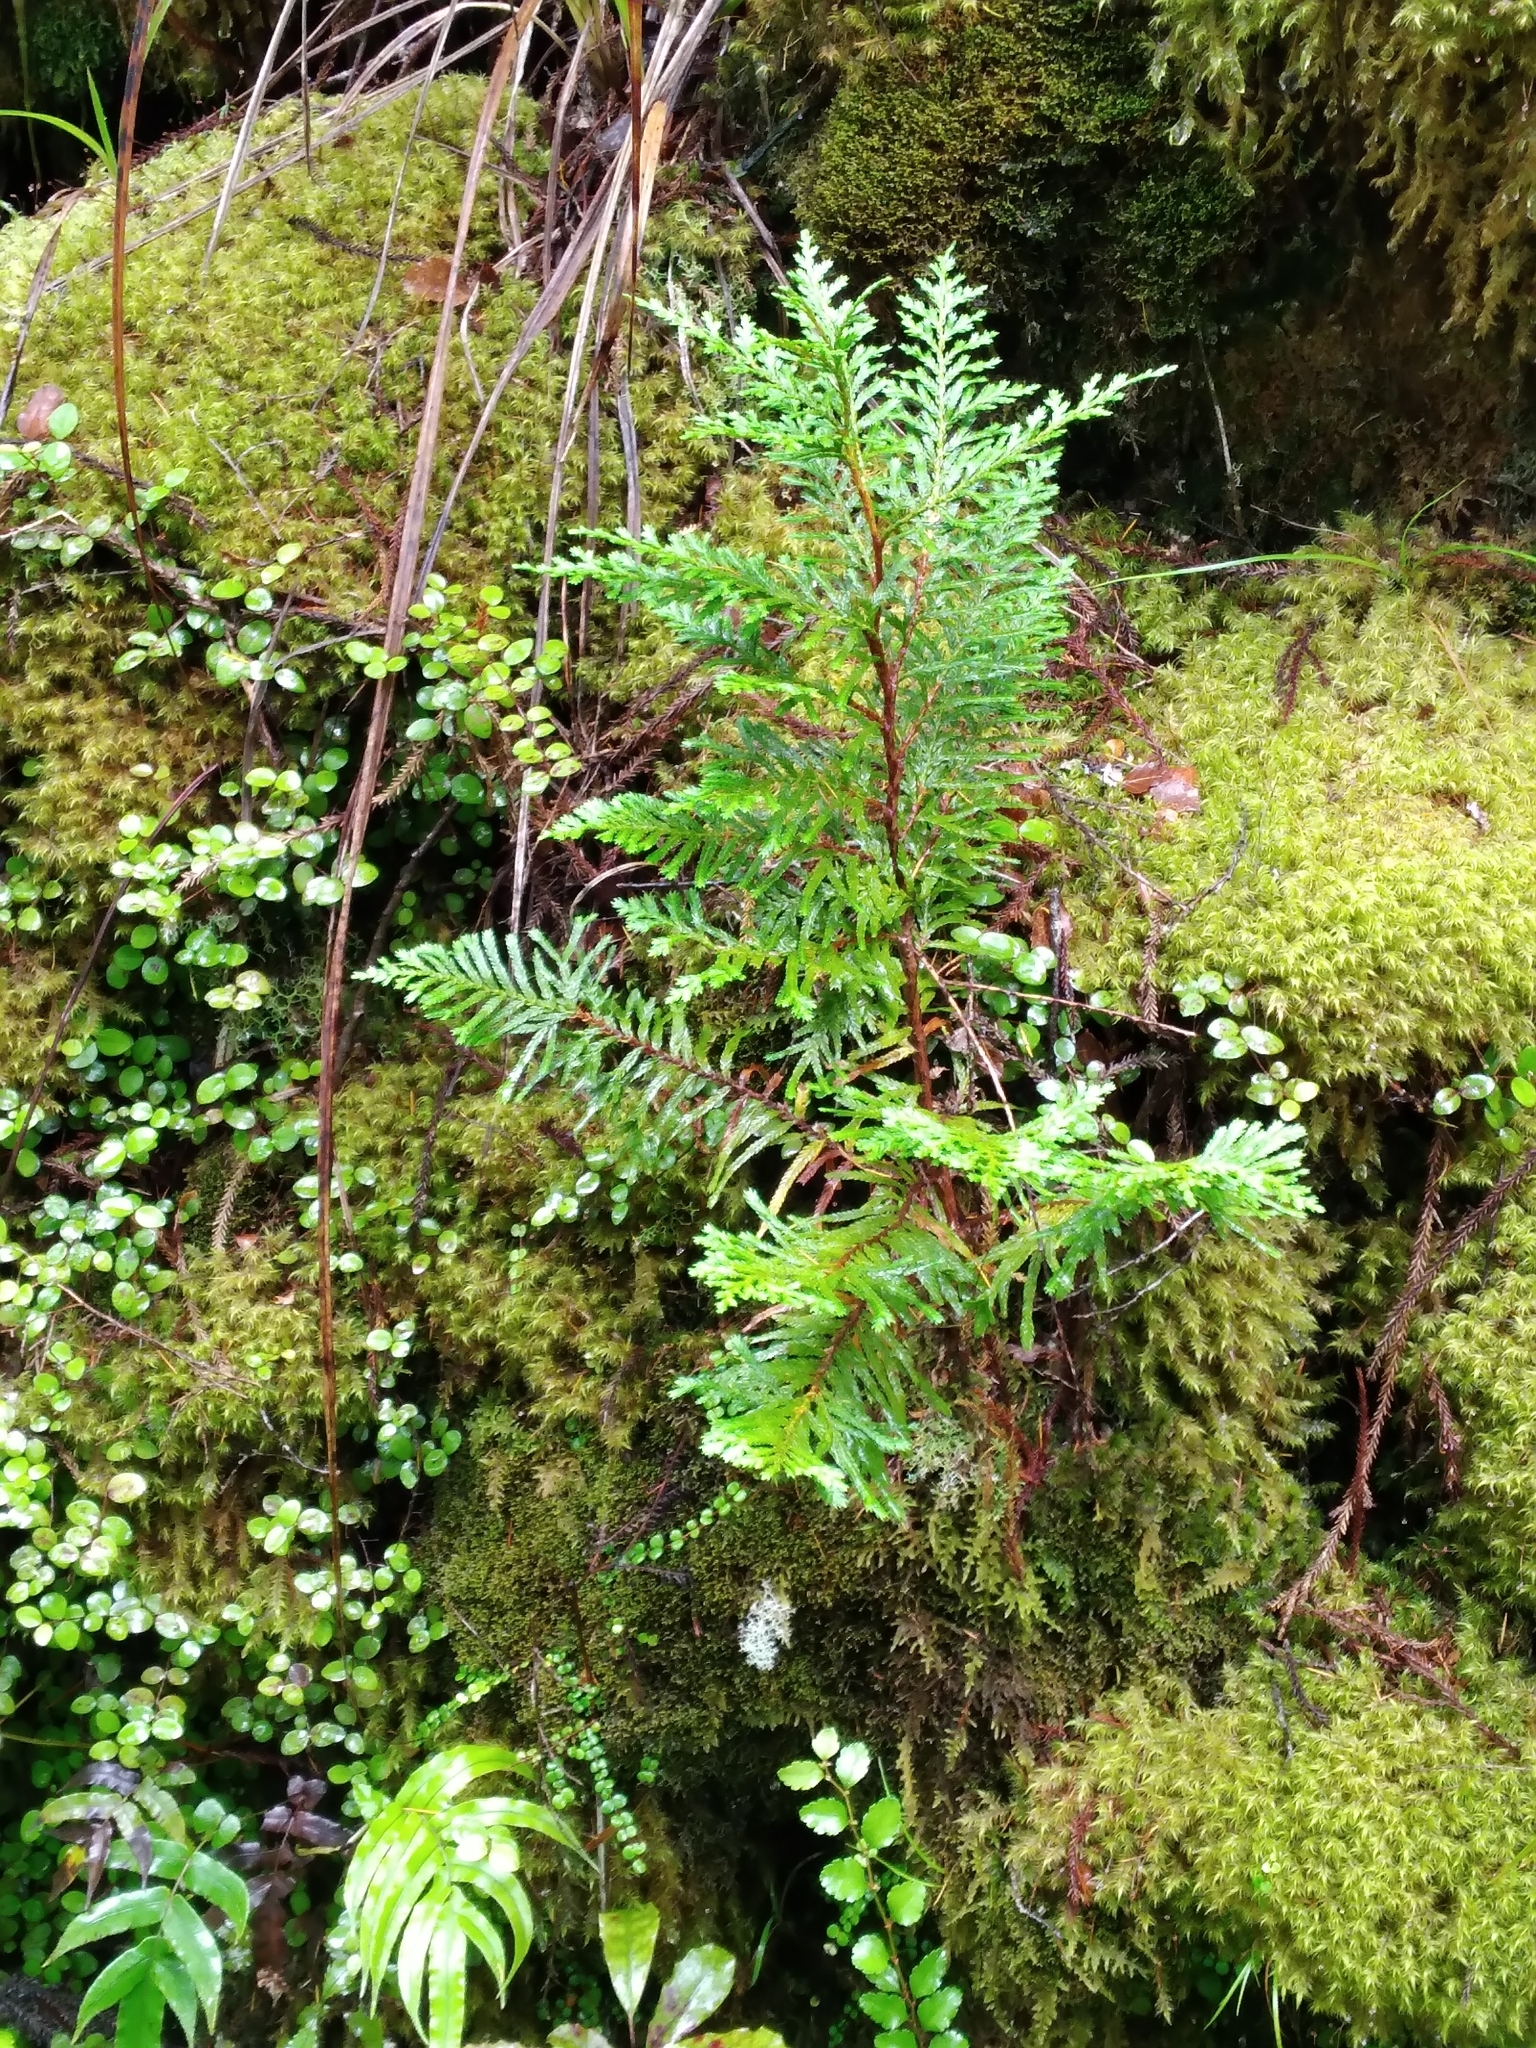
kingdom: Plantae
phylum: Tracheophyta
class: Pinopsida
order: Pinales
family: Cupressaceae
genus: Libocedrus
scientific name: Libocedrus plumosa
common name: New zealand cedar
